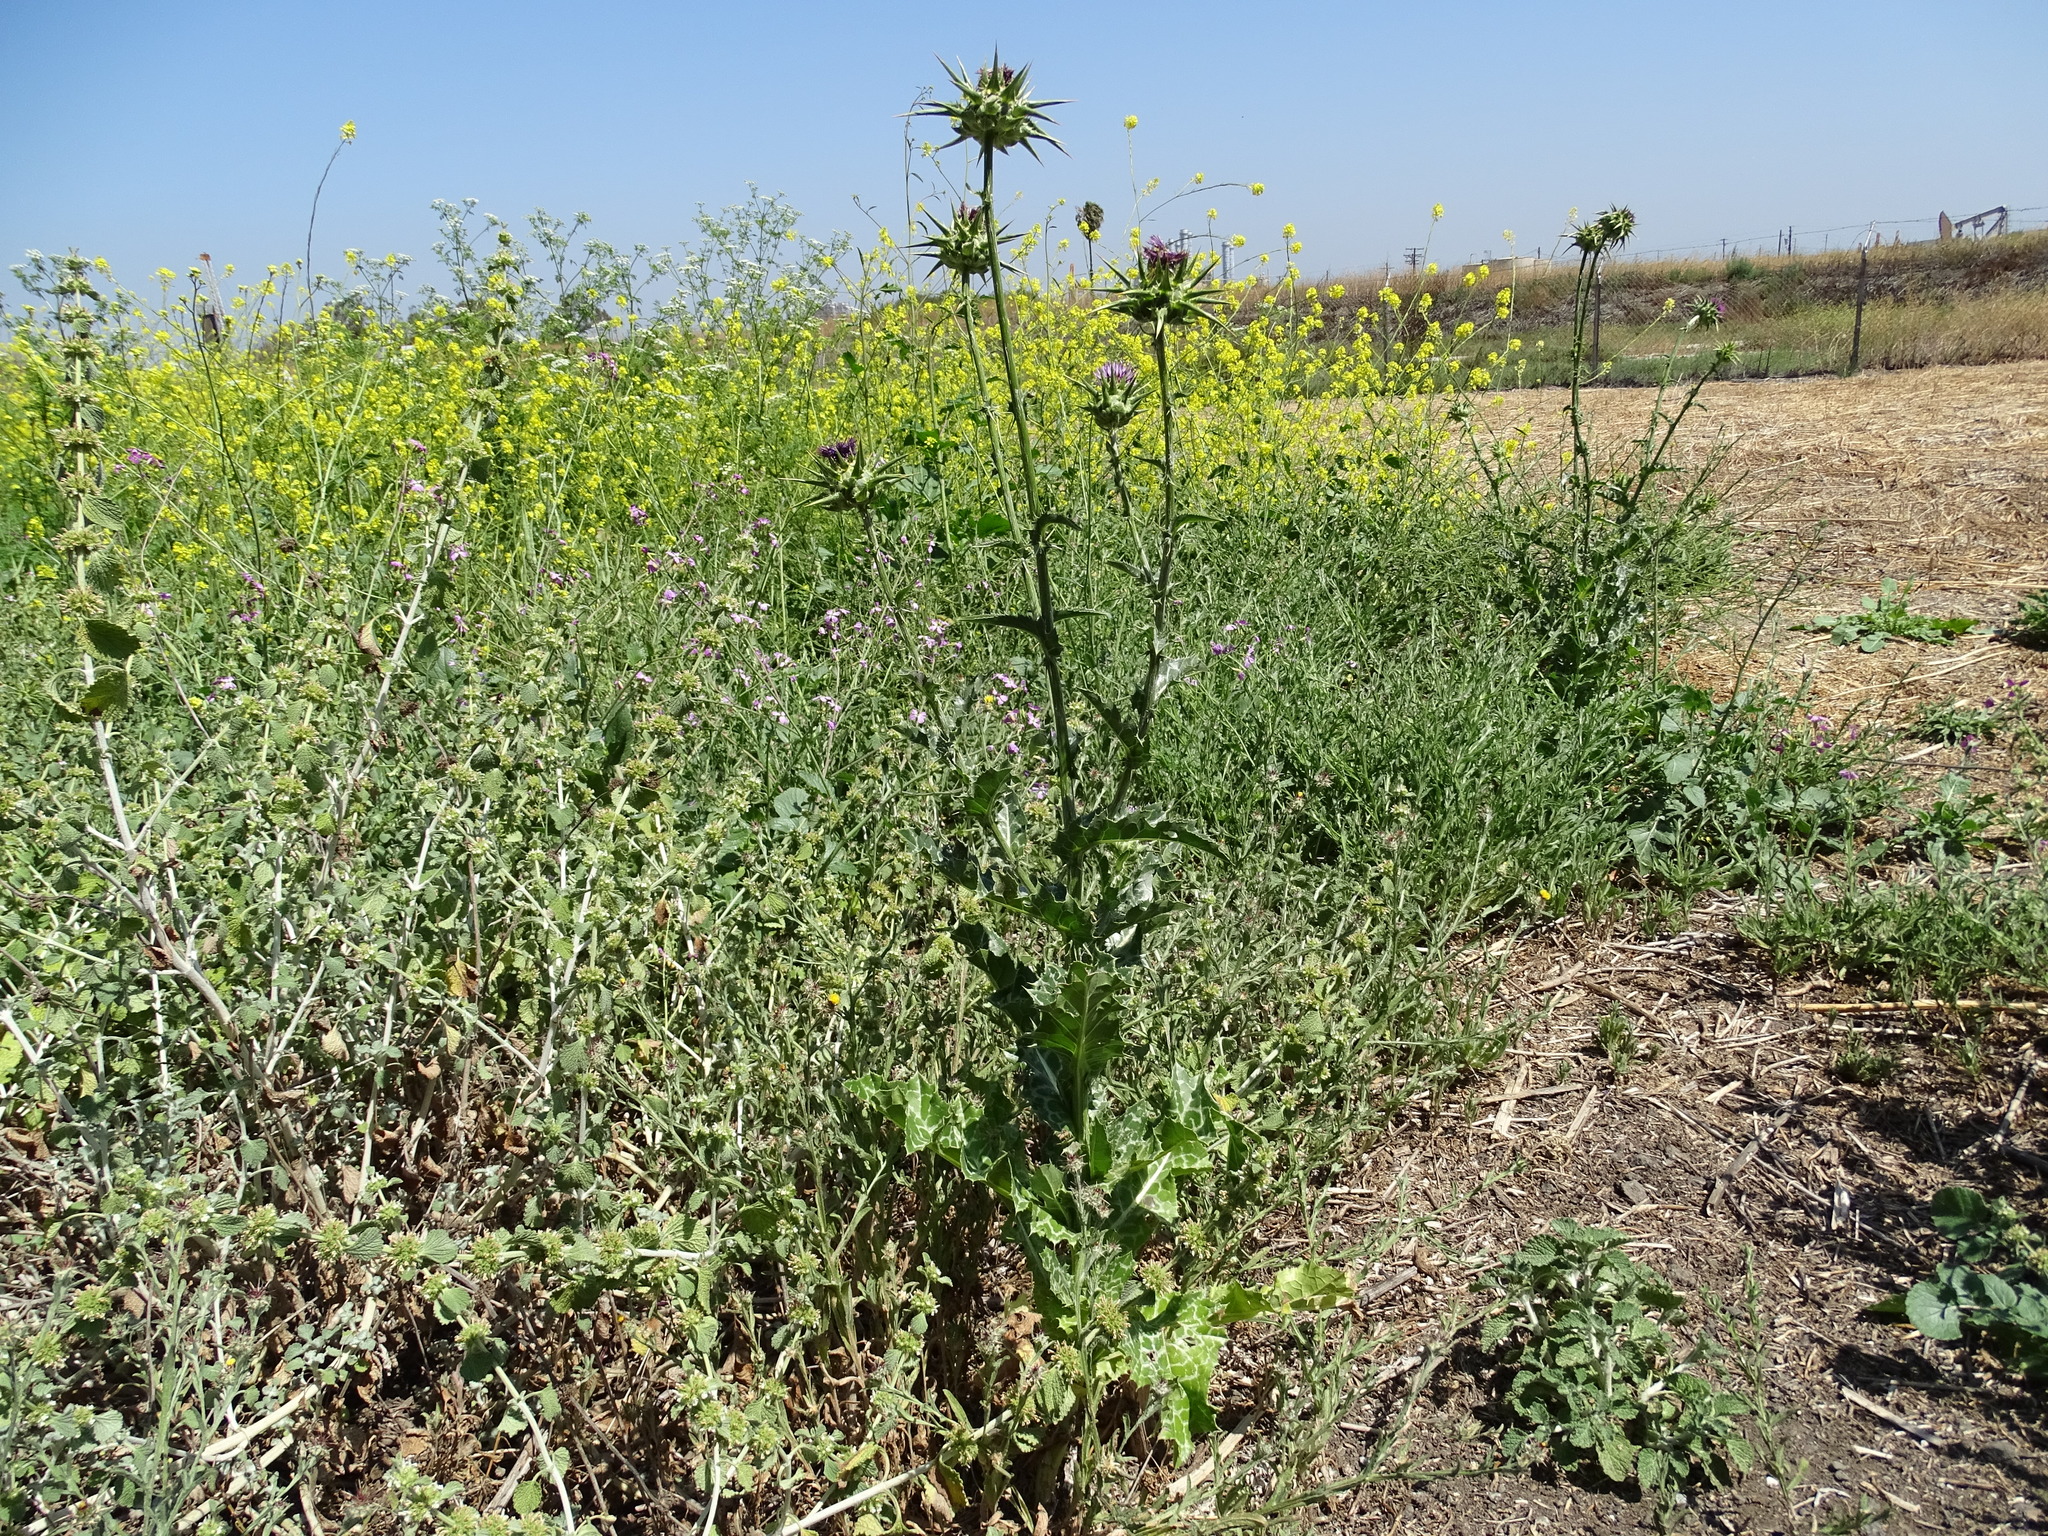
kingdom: Plantae
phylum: Tracheophyta
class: Magnoliopsida
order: Asterales
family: Asteraceae
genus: Silybum
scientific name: Silybum marianum
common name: Milk thistle
